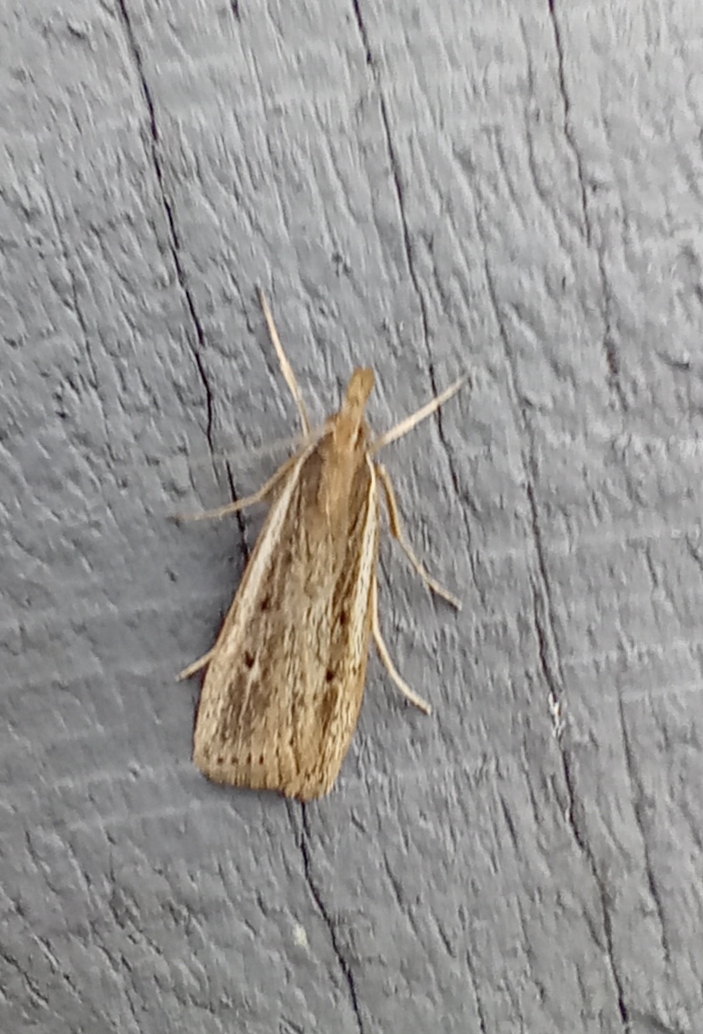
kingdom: Animalia
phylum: Arthropoda
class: Insecta
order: Lepidoptera
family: Crambidae
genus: Eudonia
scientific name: Eudonia sabulosella
